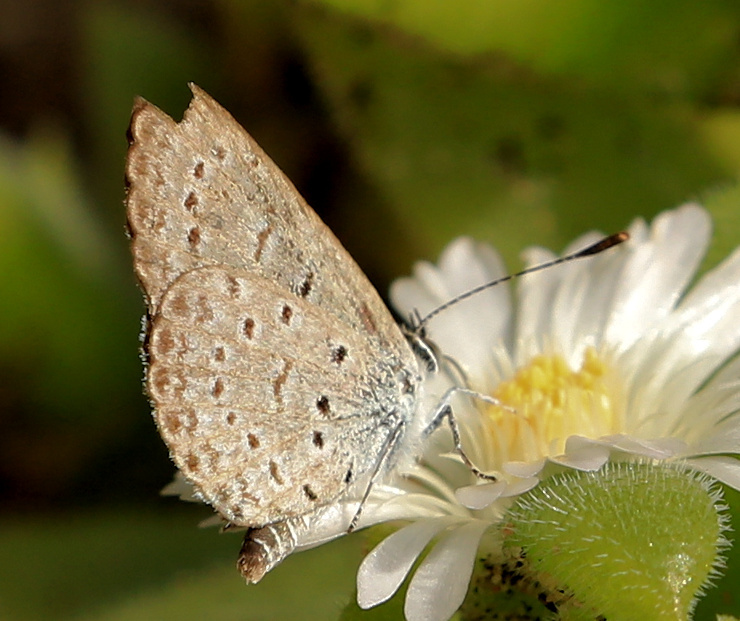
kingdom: Animalia
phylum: Arthropoda
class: Insecta
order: Lepidoptera
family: Lycaenidae
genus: Zizeeria
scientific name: Zizeeria knysna
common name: African grass blue
